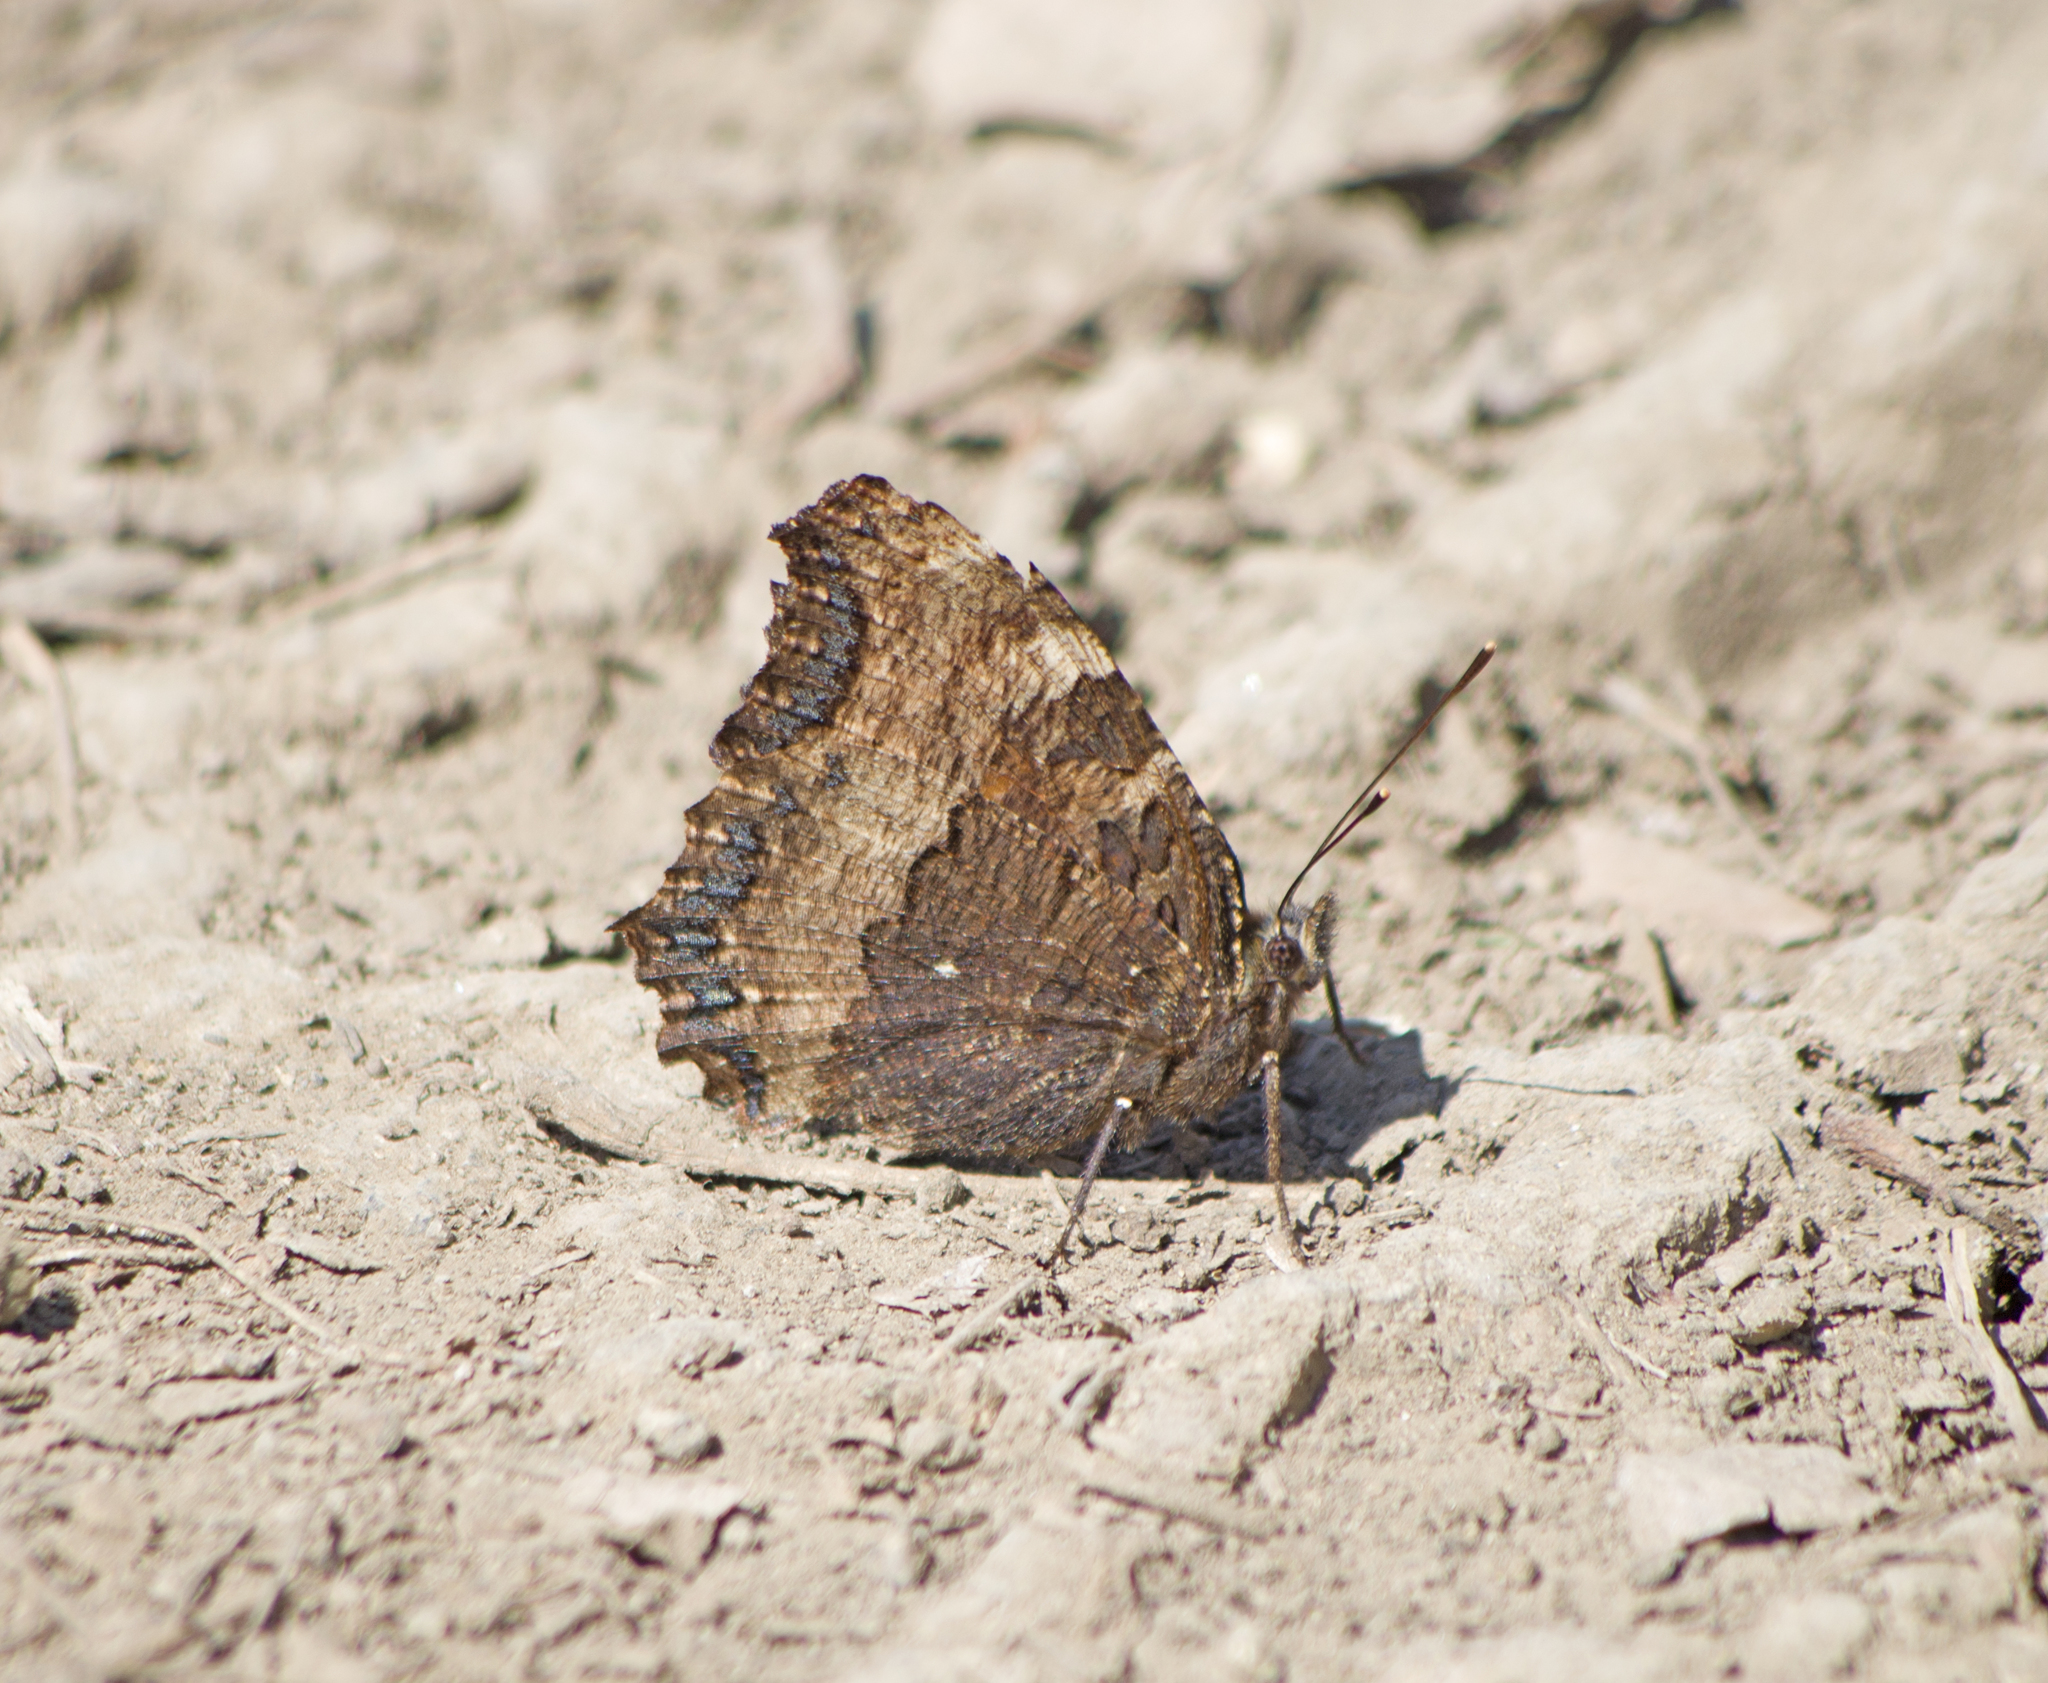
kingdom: Animalia
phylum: Arthropoda
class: Insecta
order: Lepidoptera
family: Nymphalidae
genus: Nymphalis
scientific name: Nymphalis polychloros
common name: Large tortoiseshell
